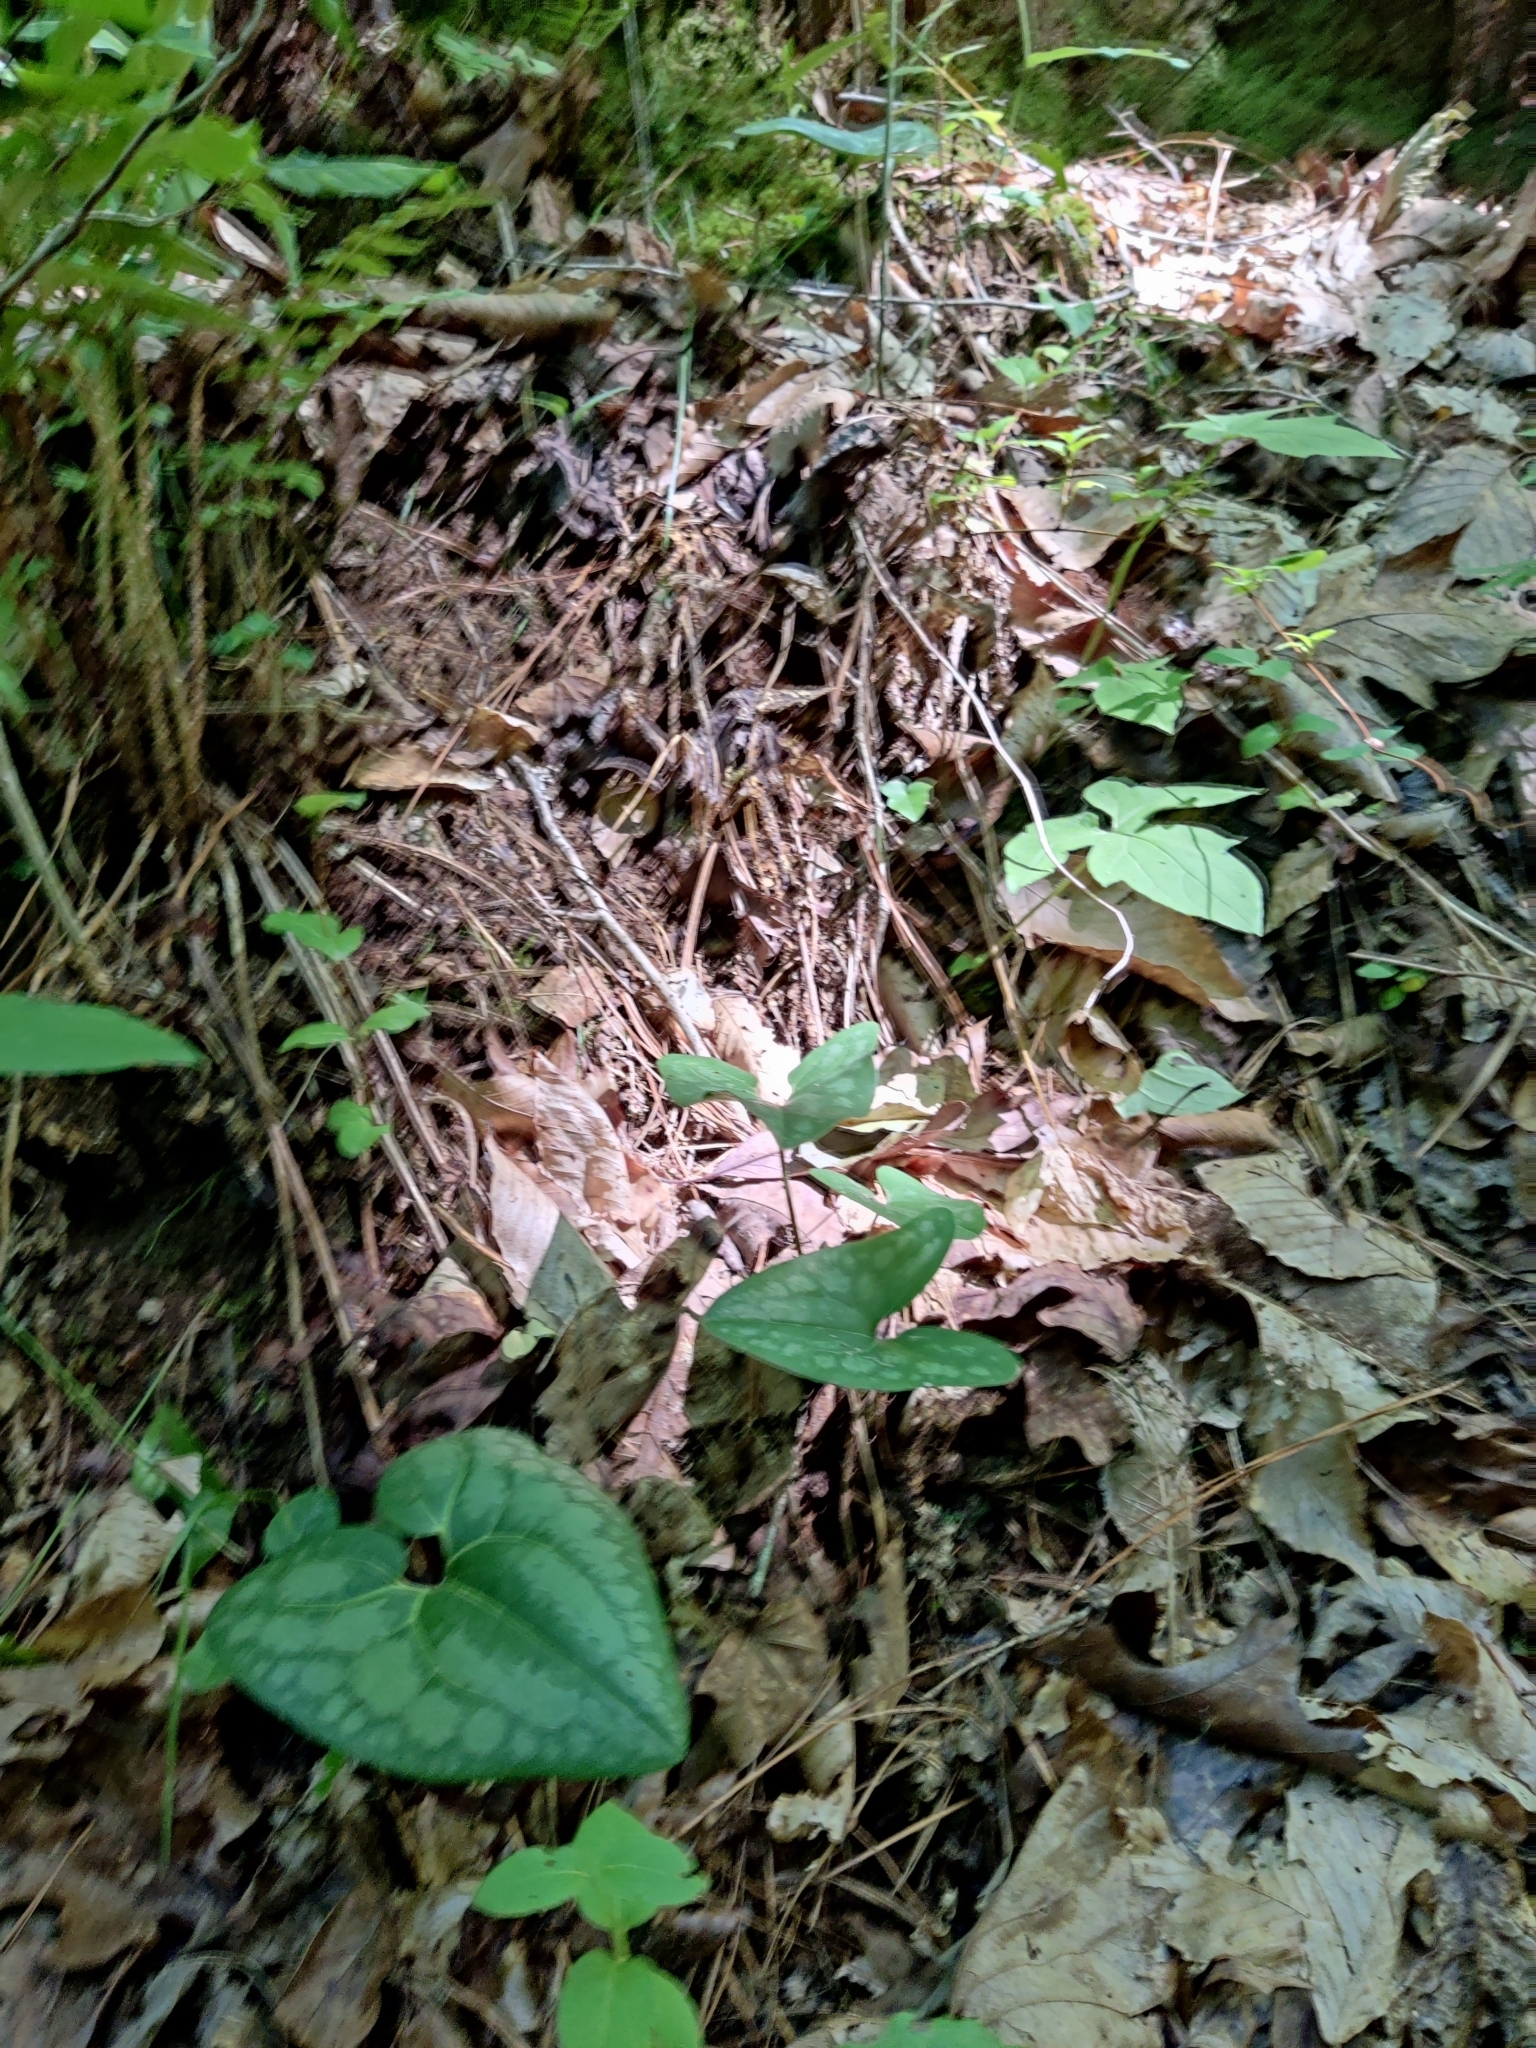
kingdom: Plantae
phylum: Tracheophyta
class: Magnoliopsida
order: Piperales
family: Aristolochiaceae
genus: Hexastylis
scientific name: Hexastylis arifolia
